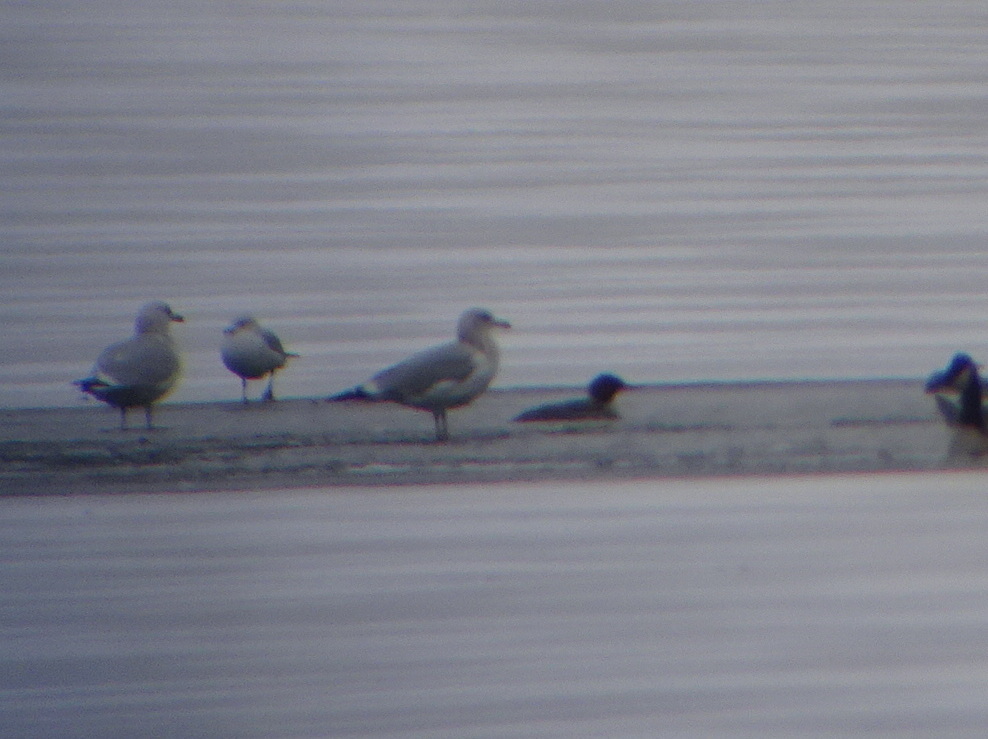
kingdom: Animalia
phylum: Chordata
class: Aves
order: Anseriformes
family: Anatidae
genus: Mergus
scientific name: Mergus merganser
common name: Common merganser
